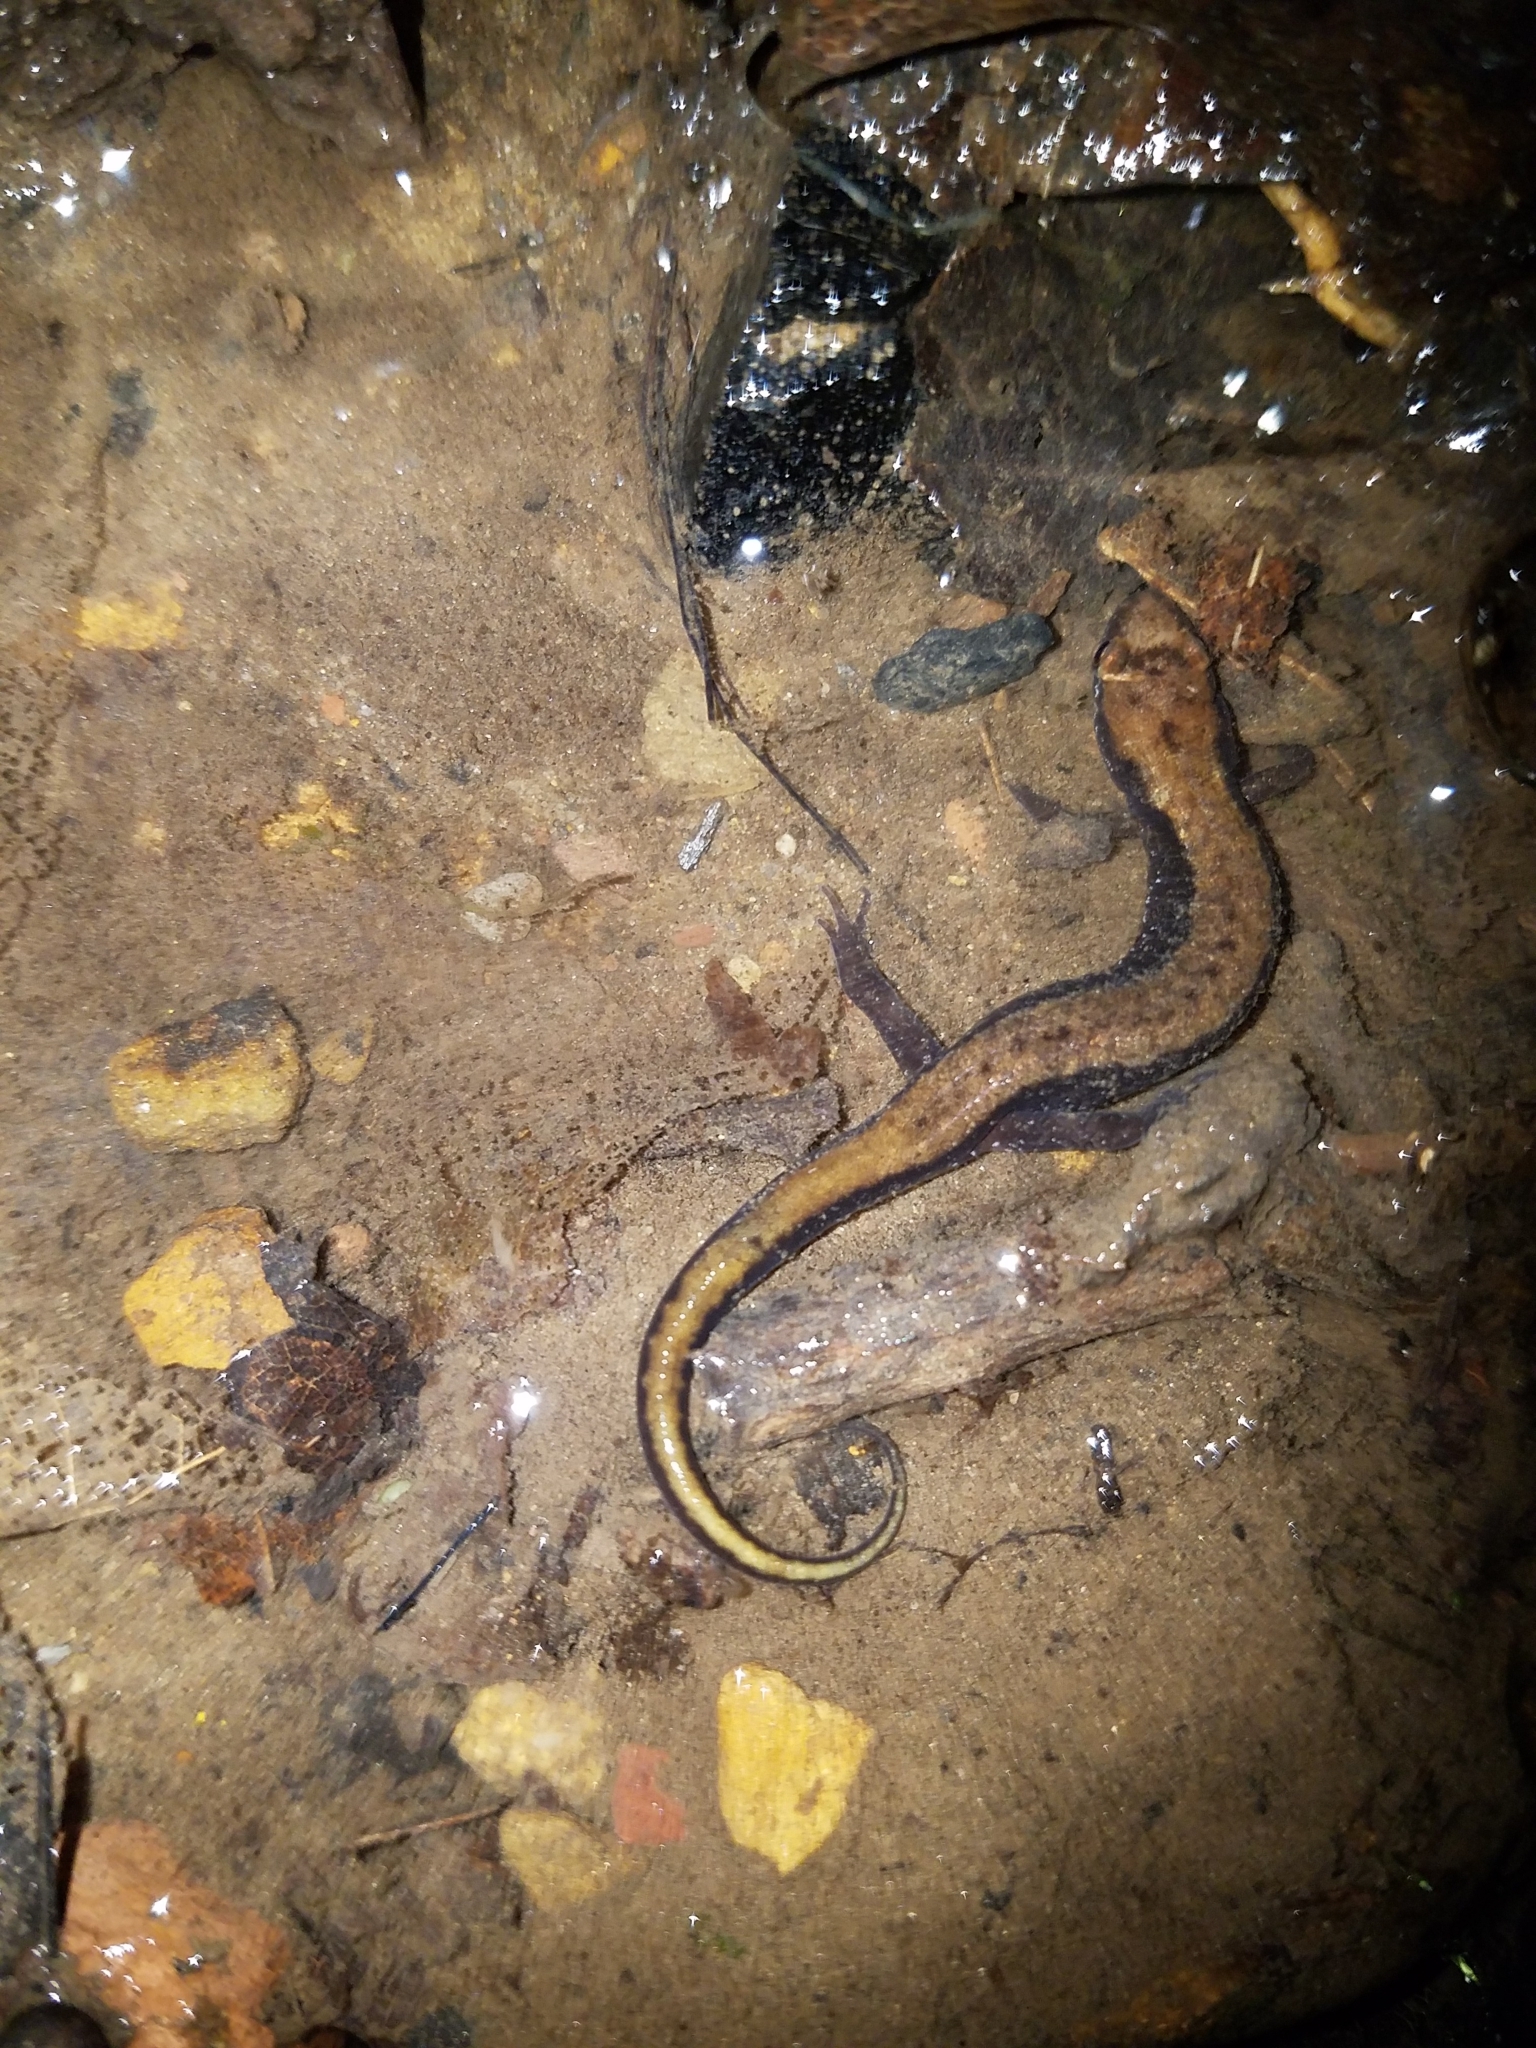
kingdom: Animalia
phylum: Chordata
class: Amphibia
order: Caudata
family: Plethodontidae
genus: Desmognathus
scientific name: Desmognathus ochrophaeus
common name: Allegheny mountain dusky salamander
